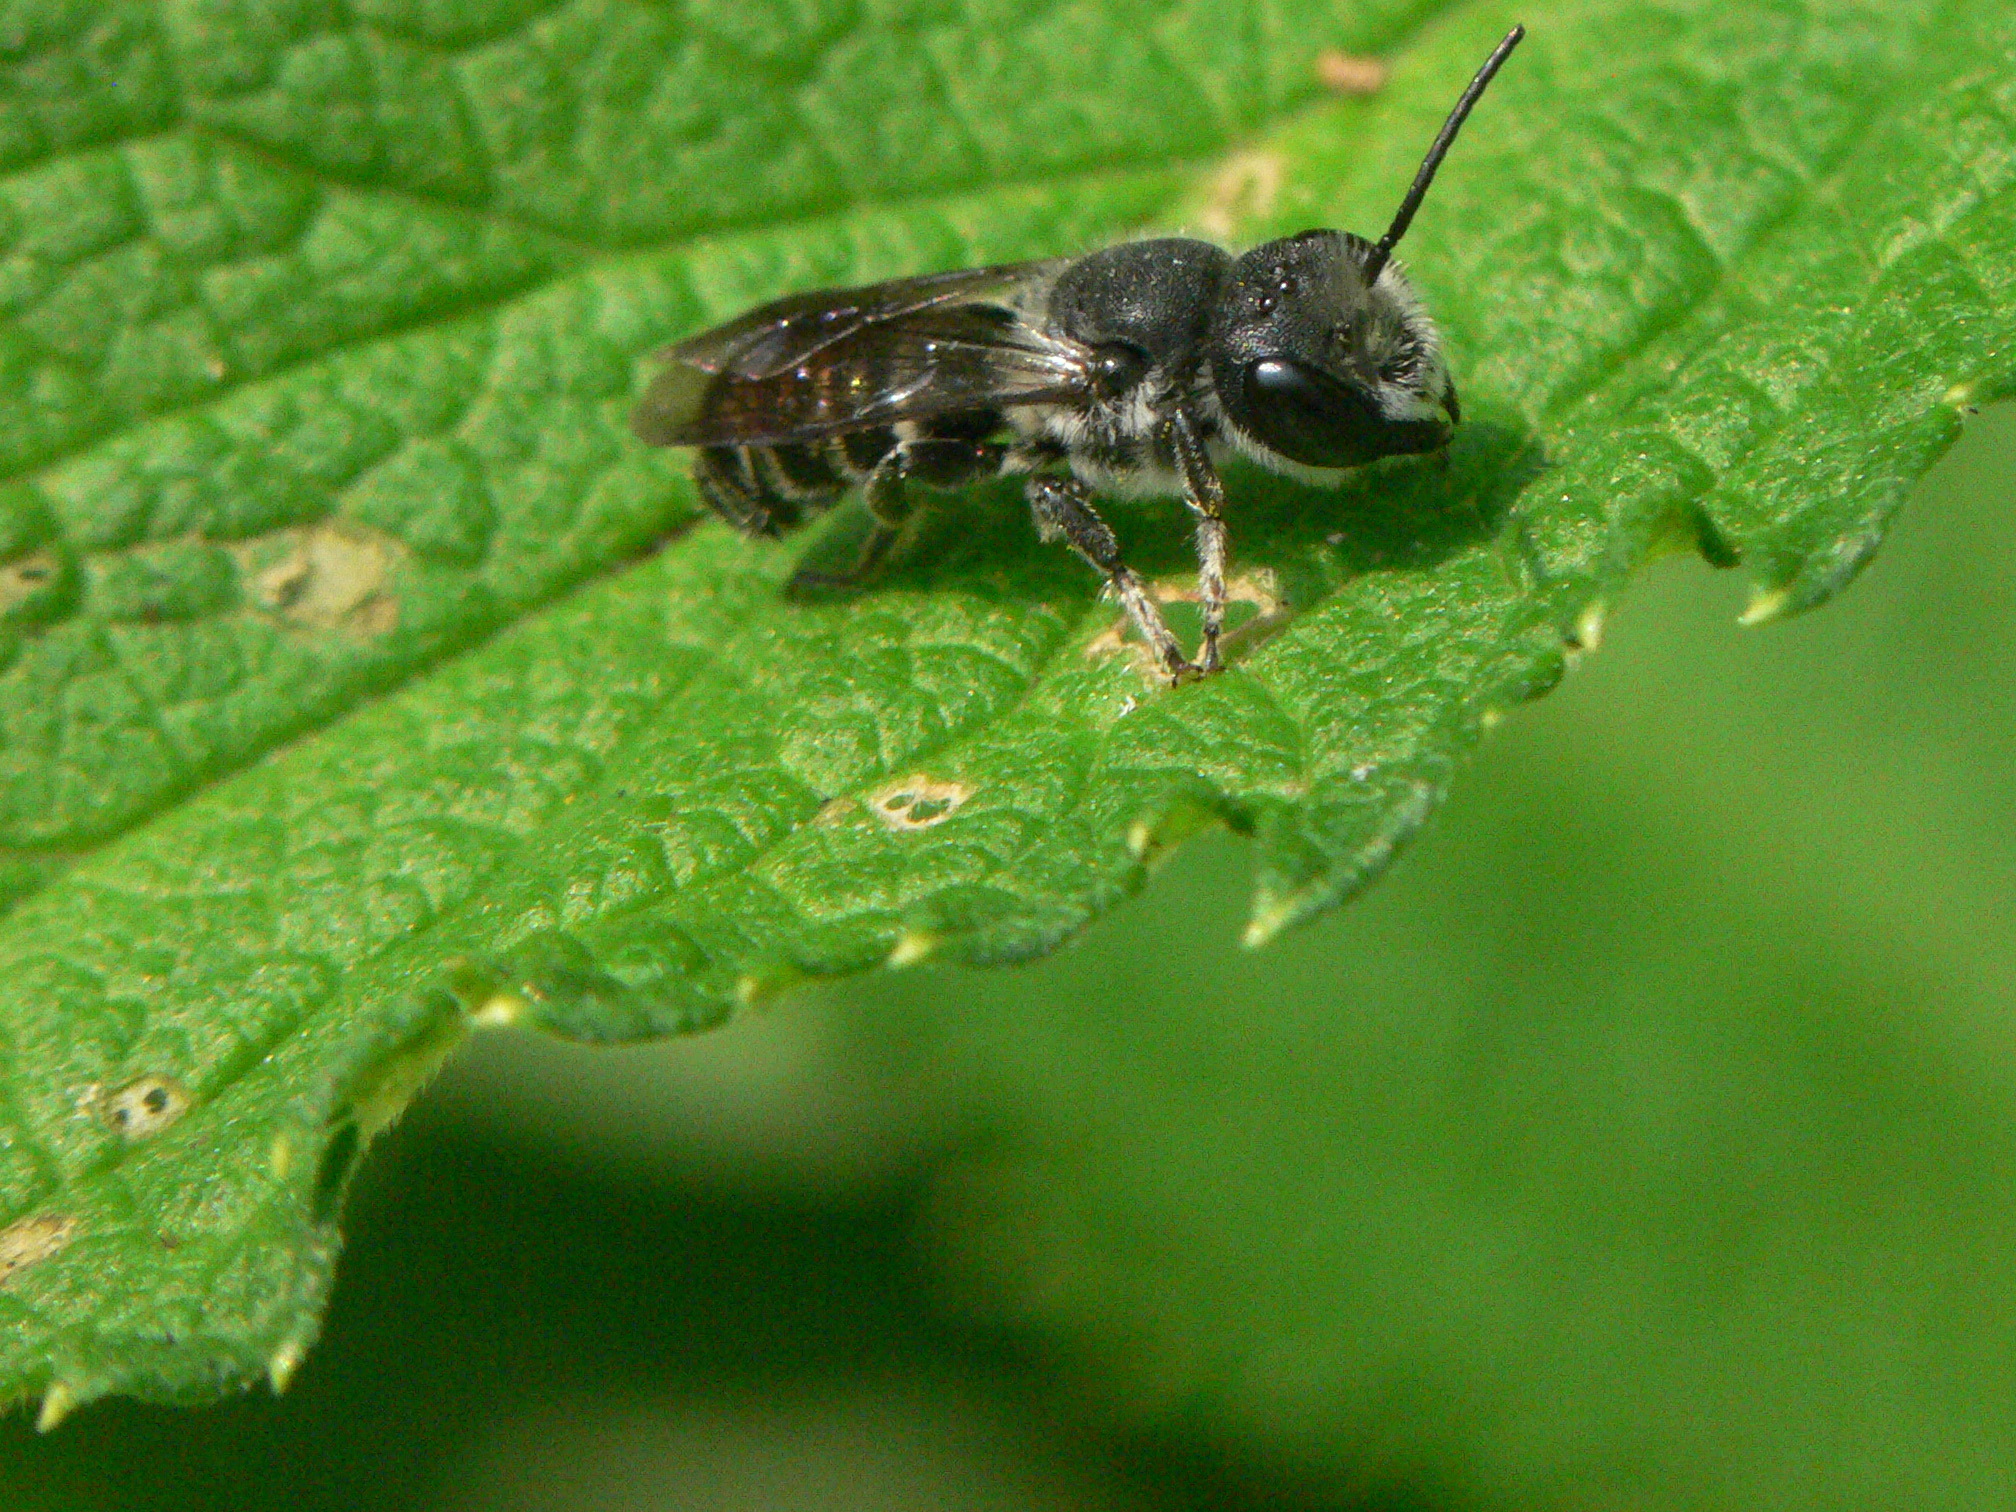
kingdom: Animalia
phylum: Arthropoda
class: Insecta
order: Hymenoptera
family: Megachilidae
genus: Megachile
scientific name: Megachile campanulae
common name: Bellflower resin bee
